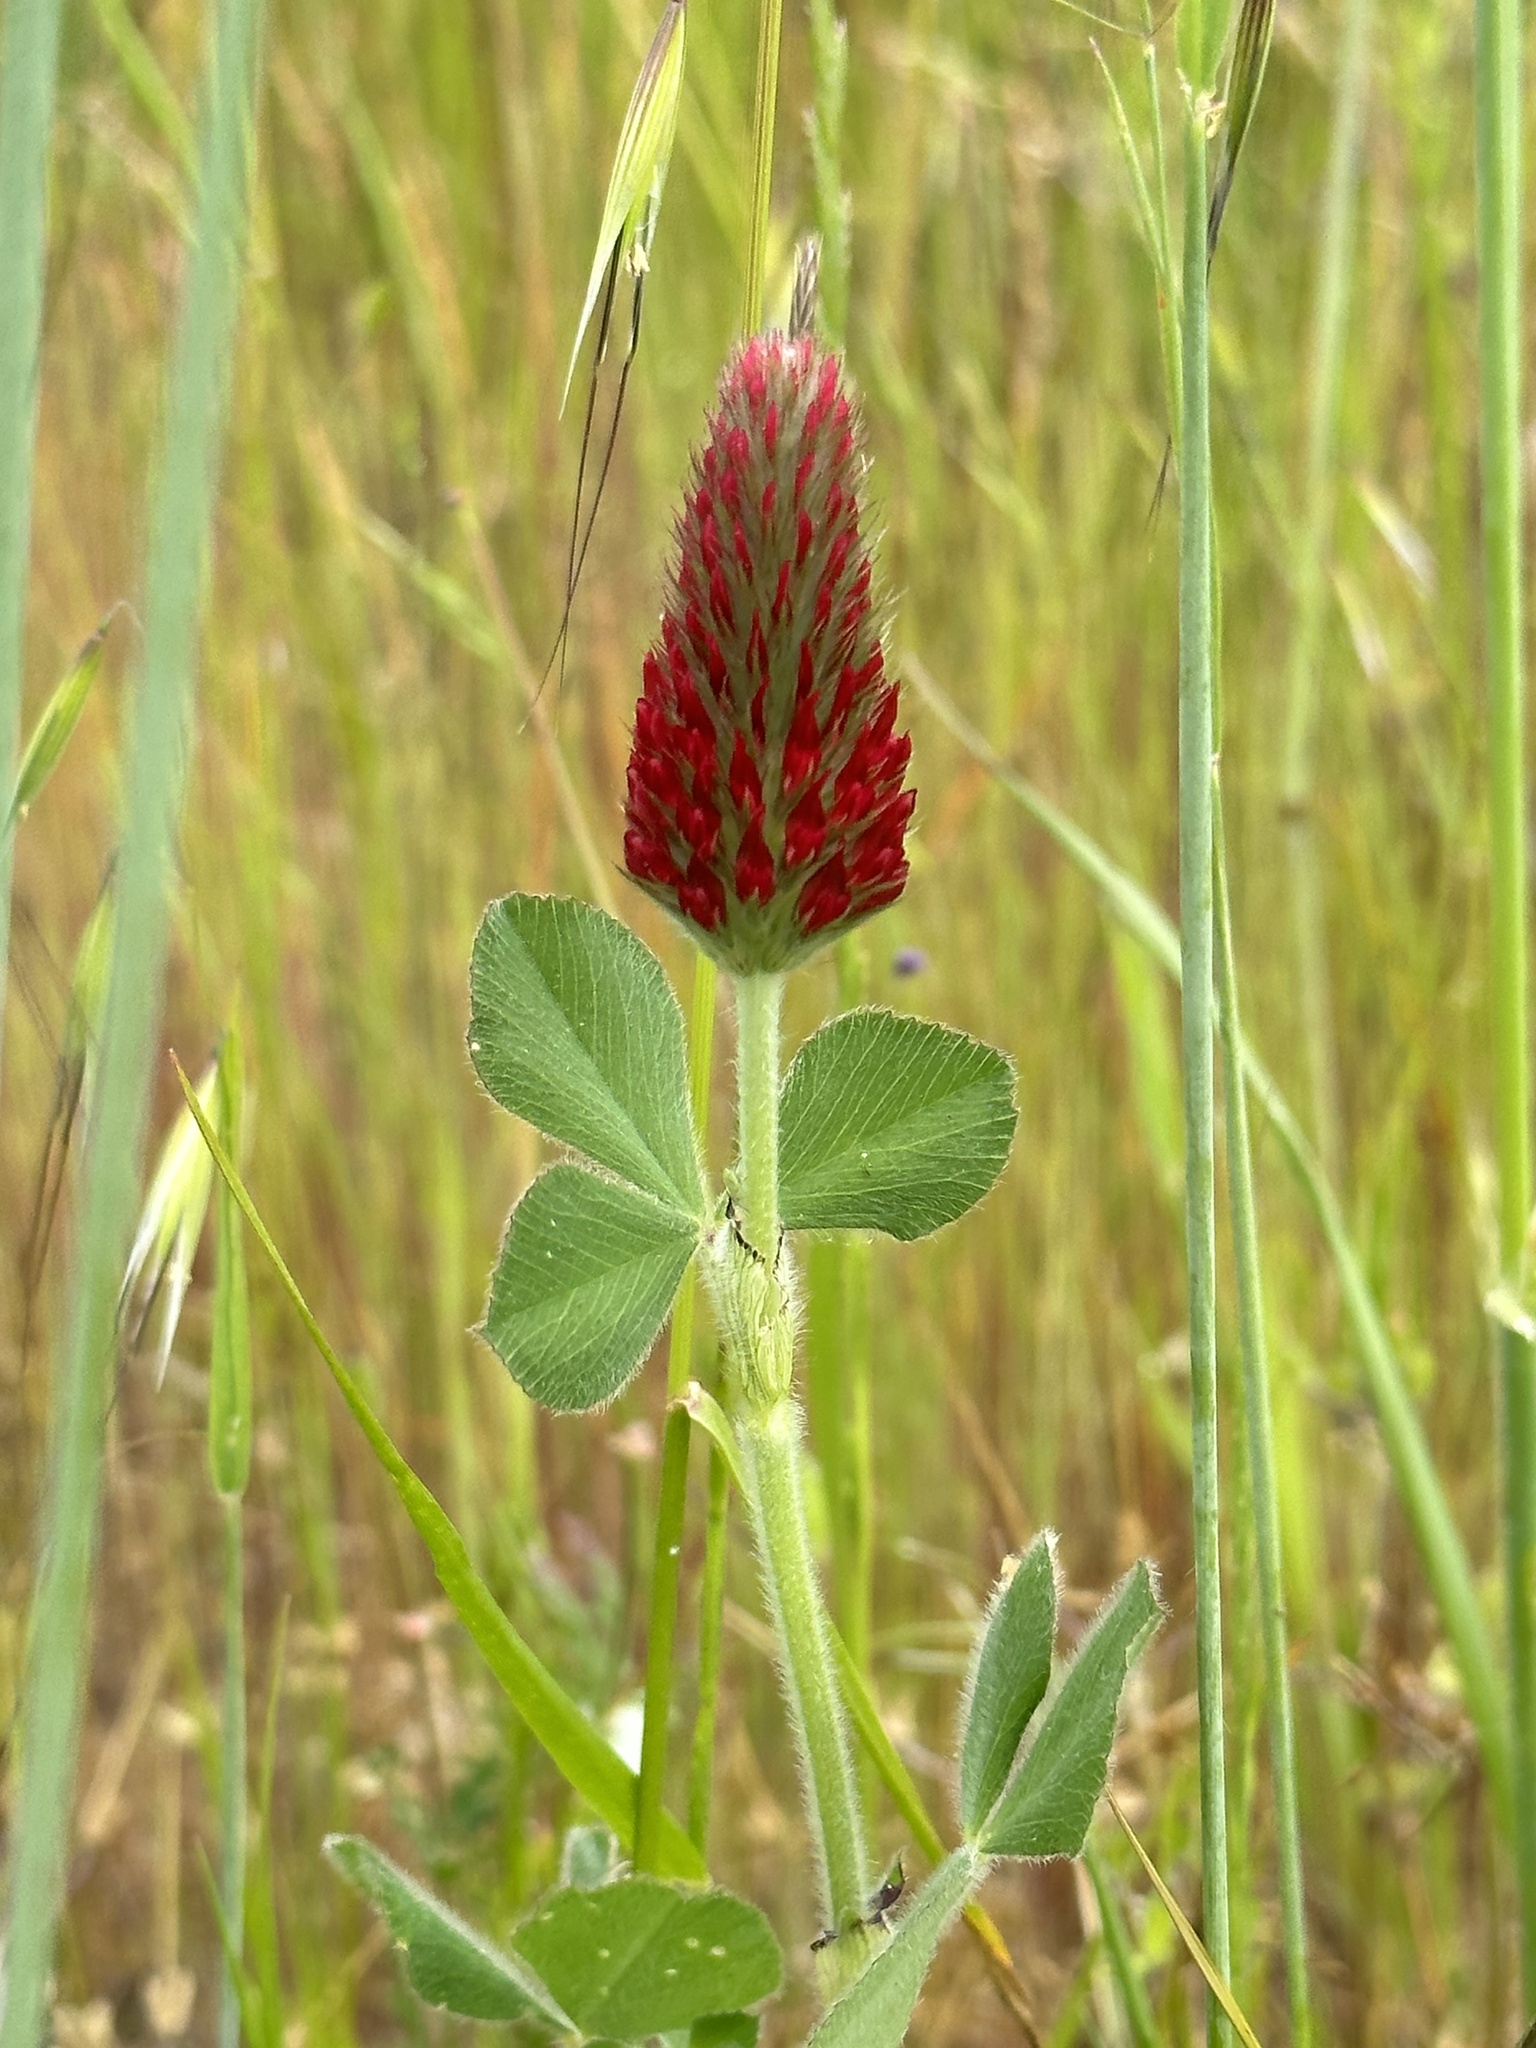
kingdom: Plantae
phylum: Tracheophyta
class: Magnoliopsida
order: Fabales
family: Fabaceae
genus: Trifolium
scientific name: Trifolium incarnatum
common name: Crimson clover
